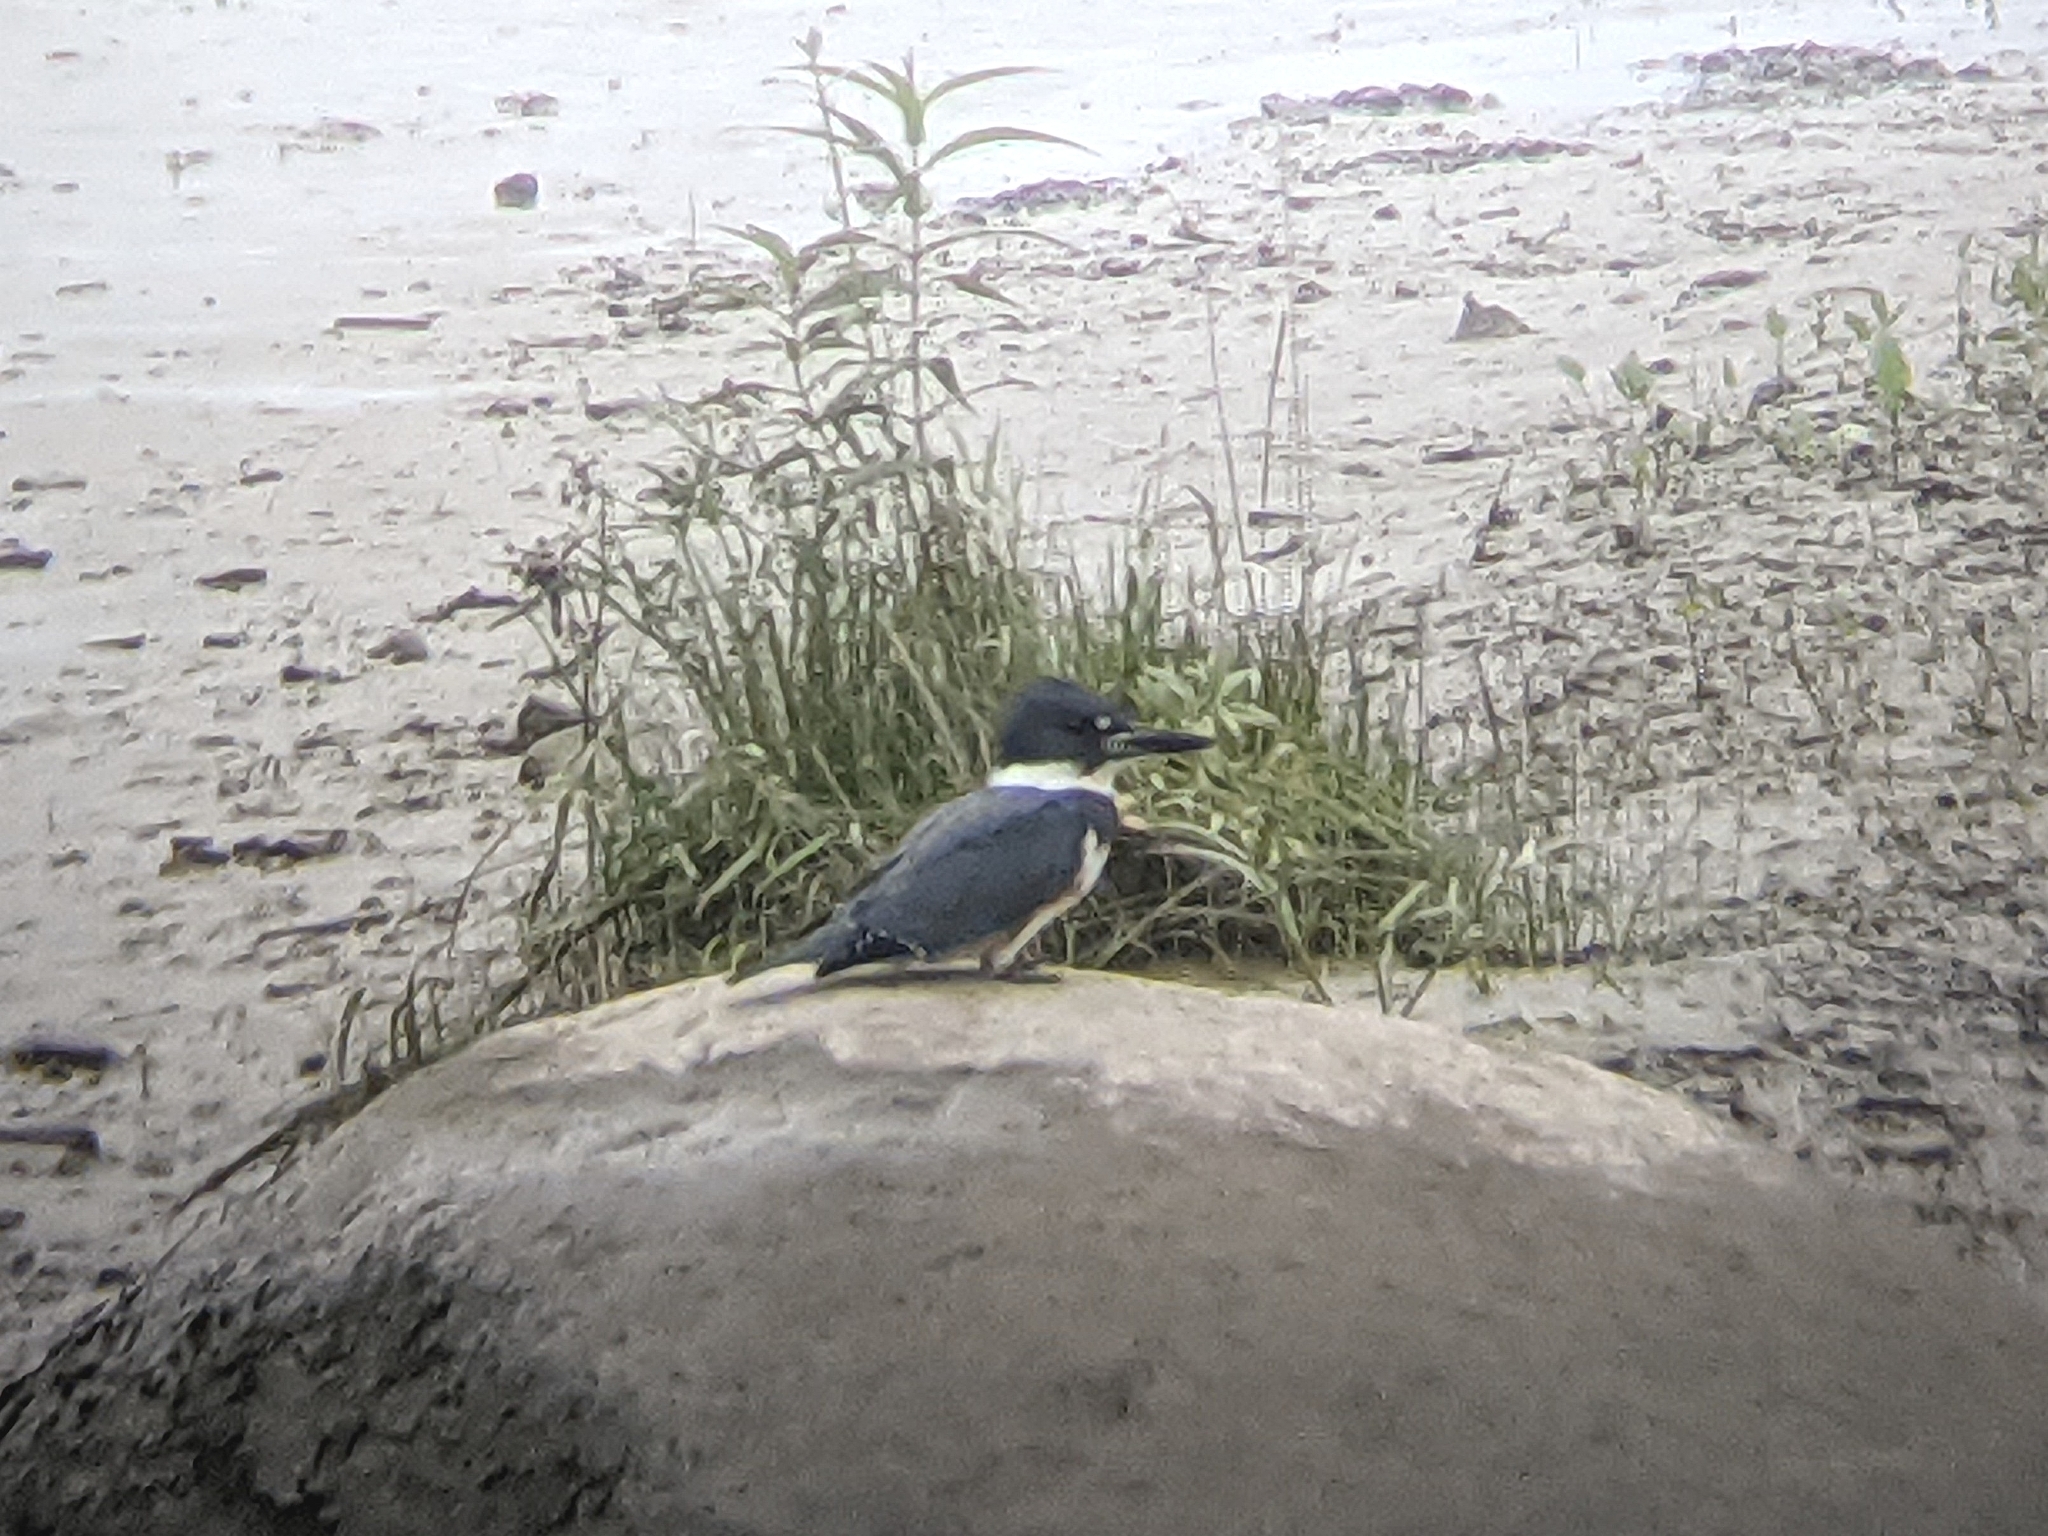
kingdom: Animalia
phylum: Chordata
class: Aves
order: Coraciiformes
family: Alcedinidae
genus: Megaceryle
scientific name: Megaceryle alcyon
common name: Belted kingfisher
